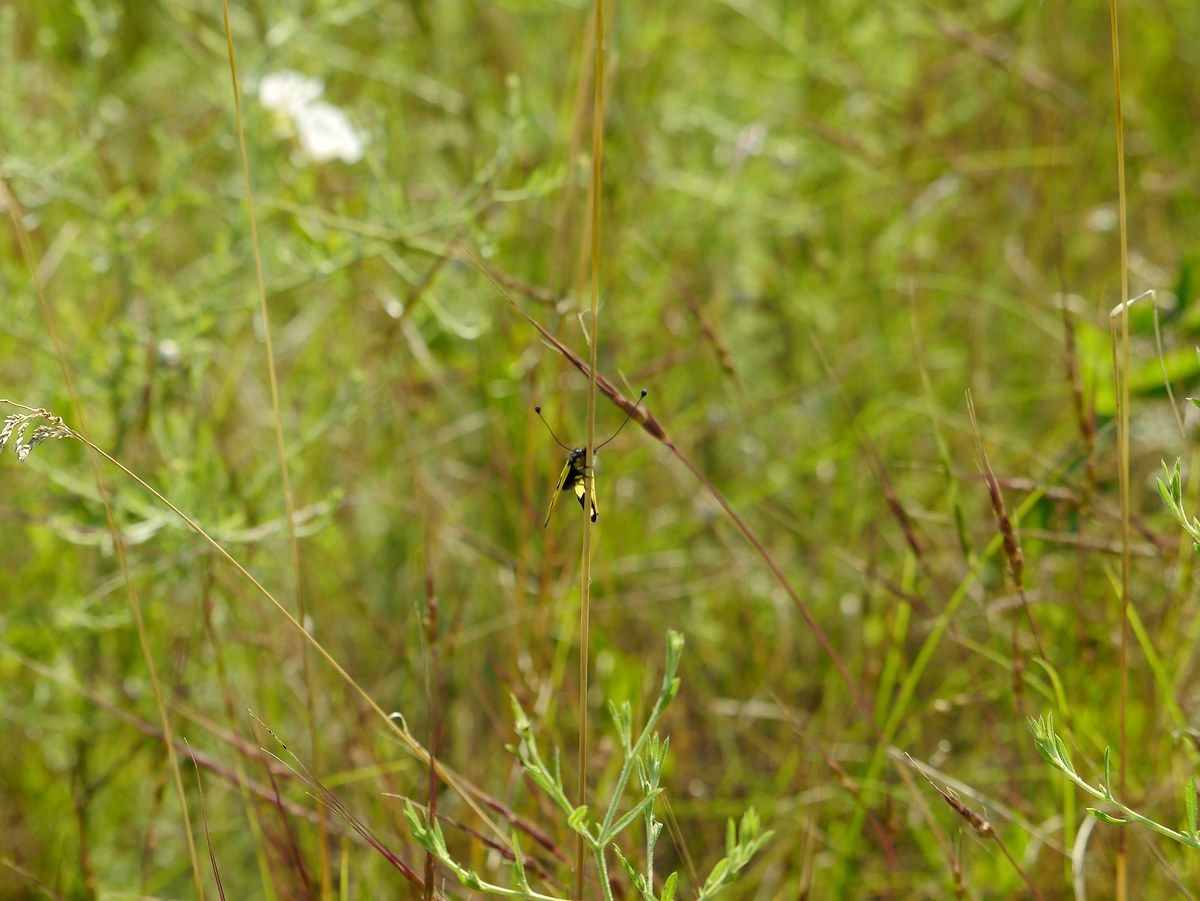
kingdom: Animalia
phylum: Arthropoda
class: Insecta
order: Neuroptera
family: Ascalaphidae
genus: Libelloides
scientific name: Libelloides macaronius
